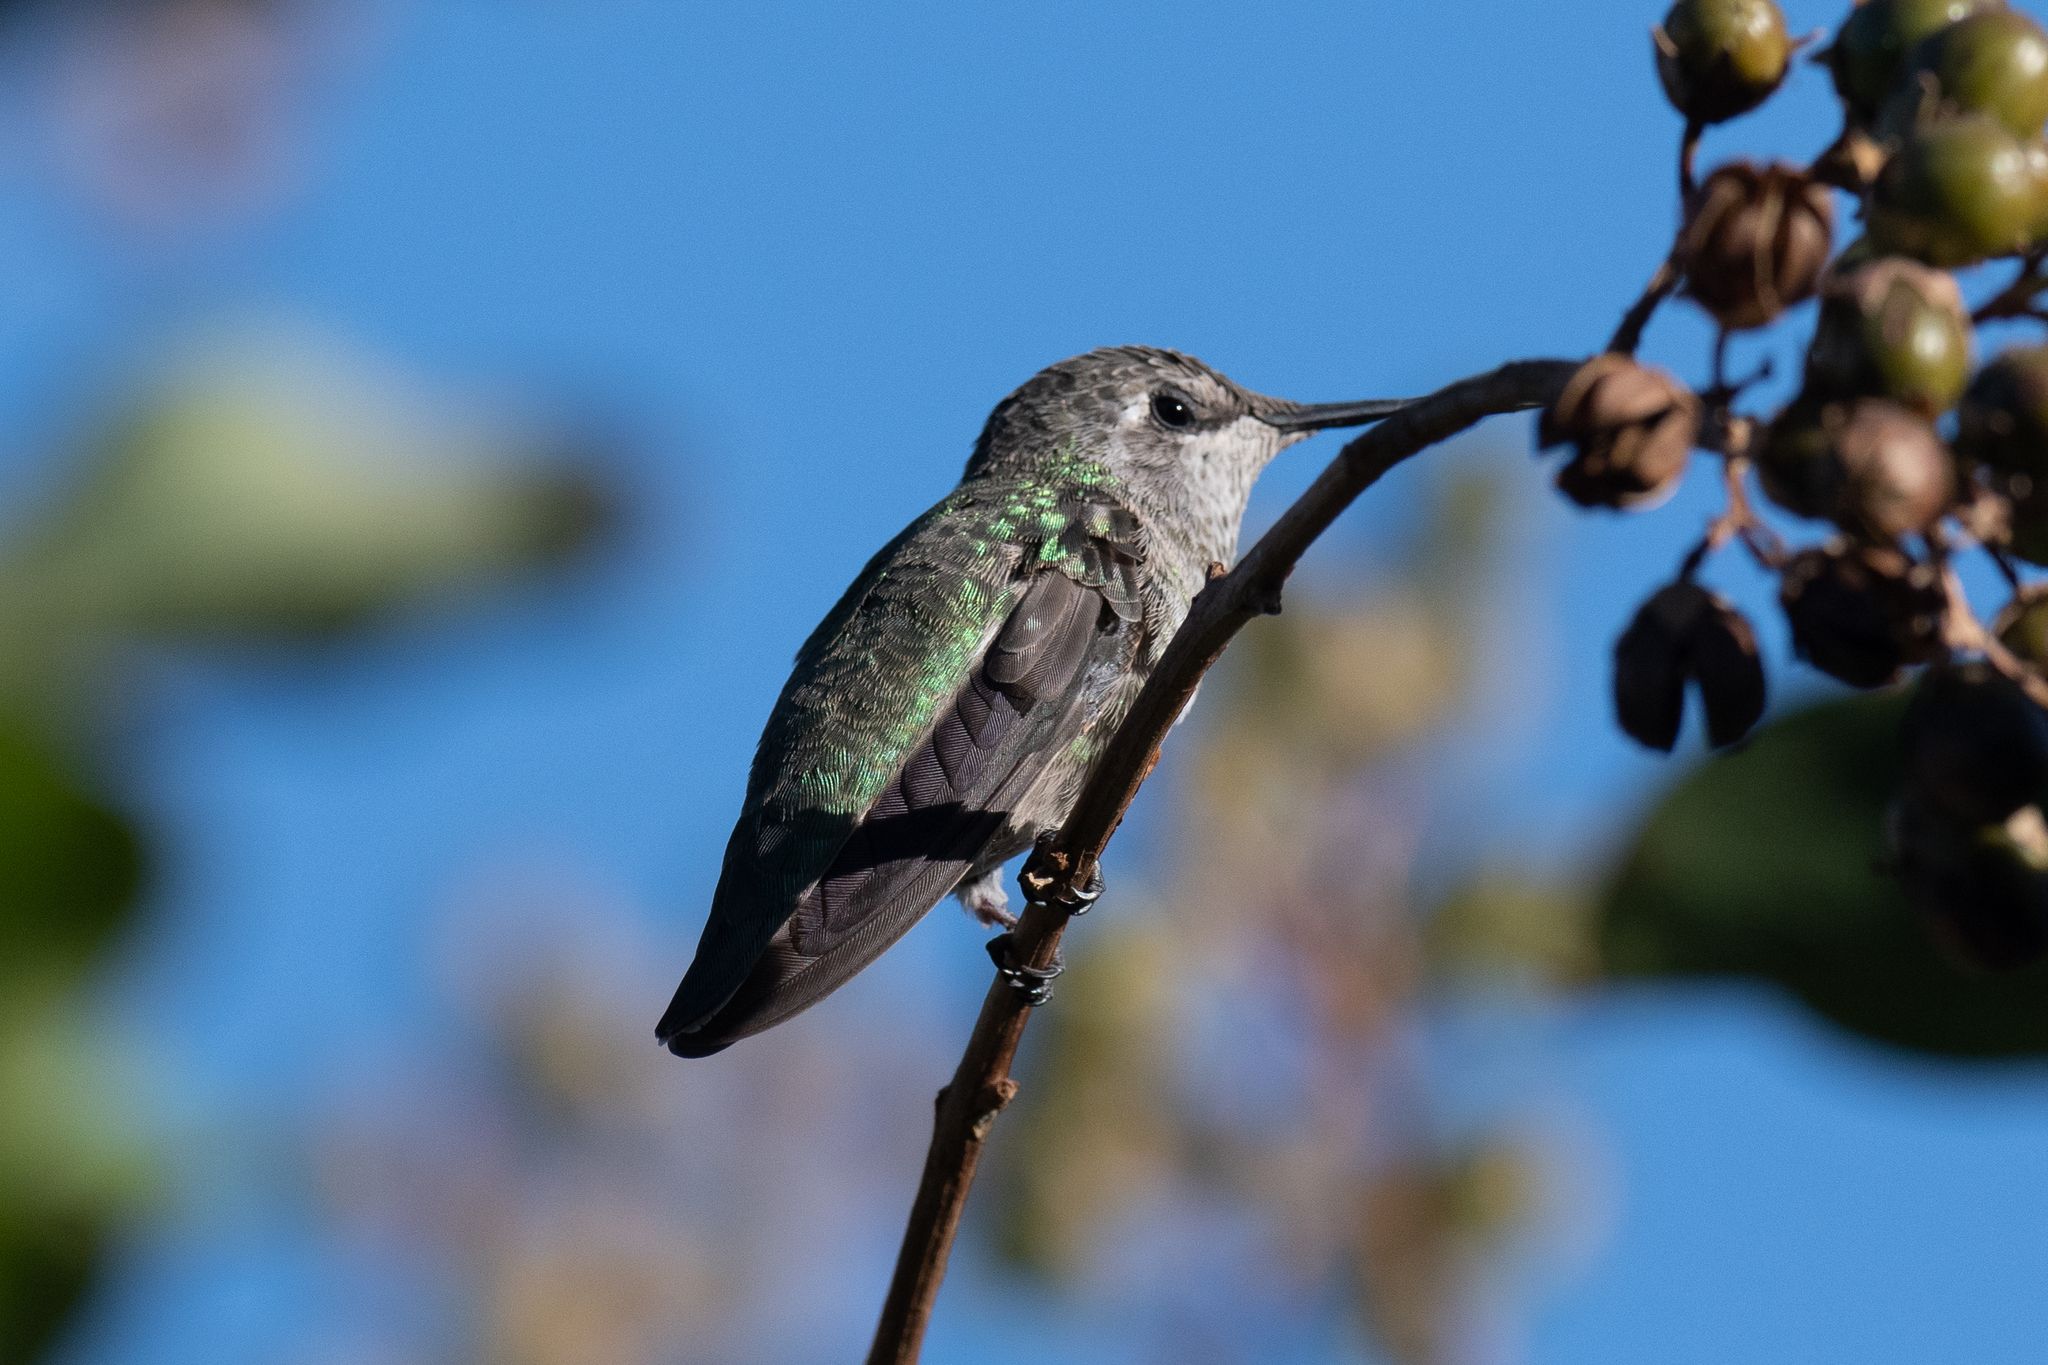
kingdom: Animalia
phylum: Chordata
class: Aves
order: Apodiformes
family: Trochilidae
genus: Calypte
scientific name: Calypte anna
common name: Anna's hummingbird
